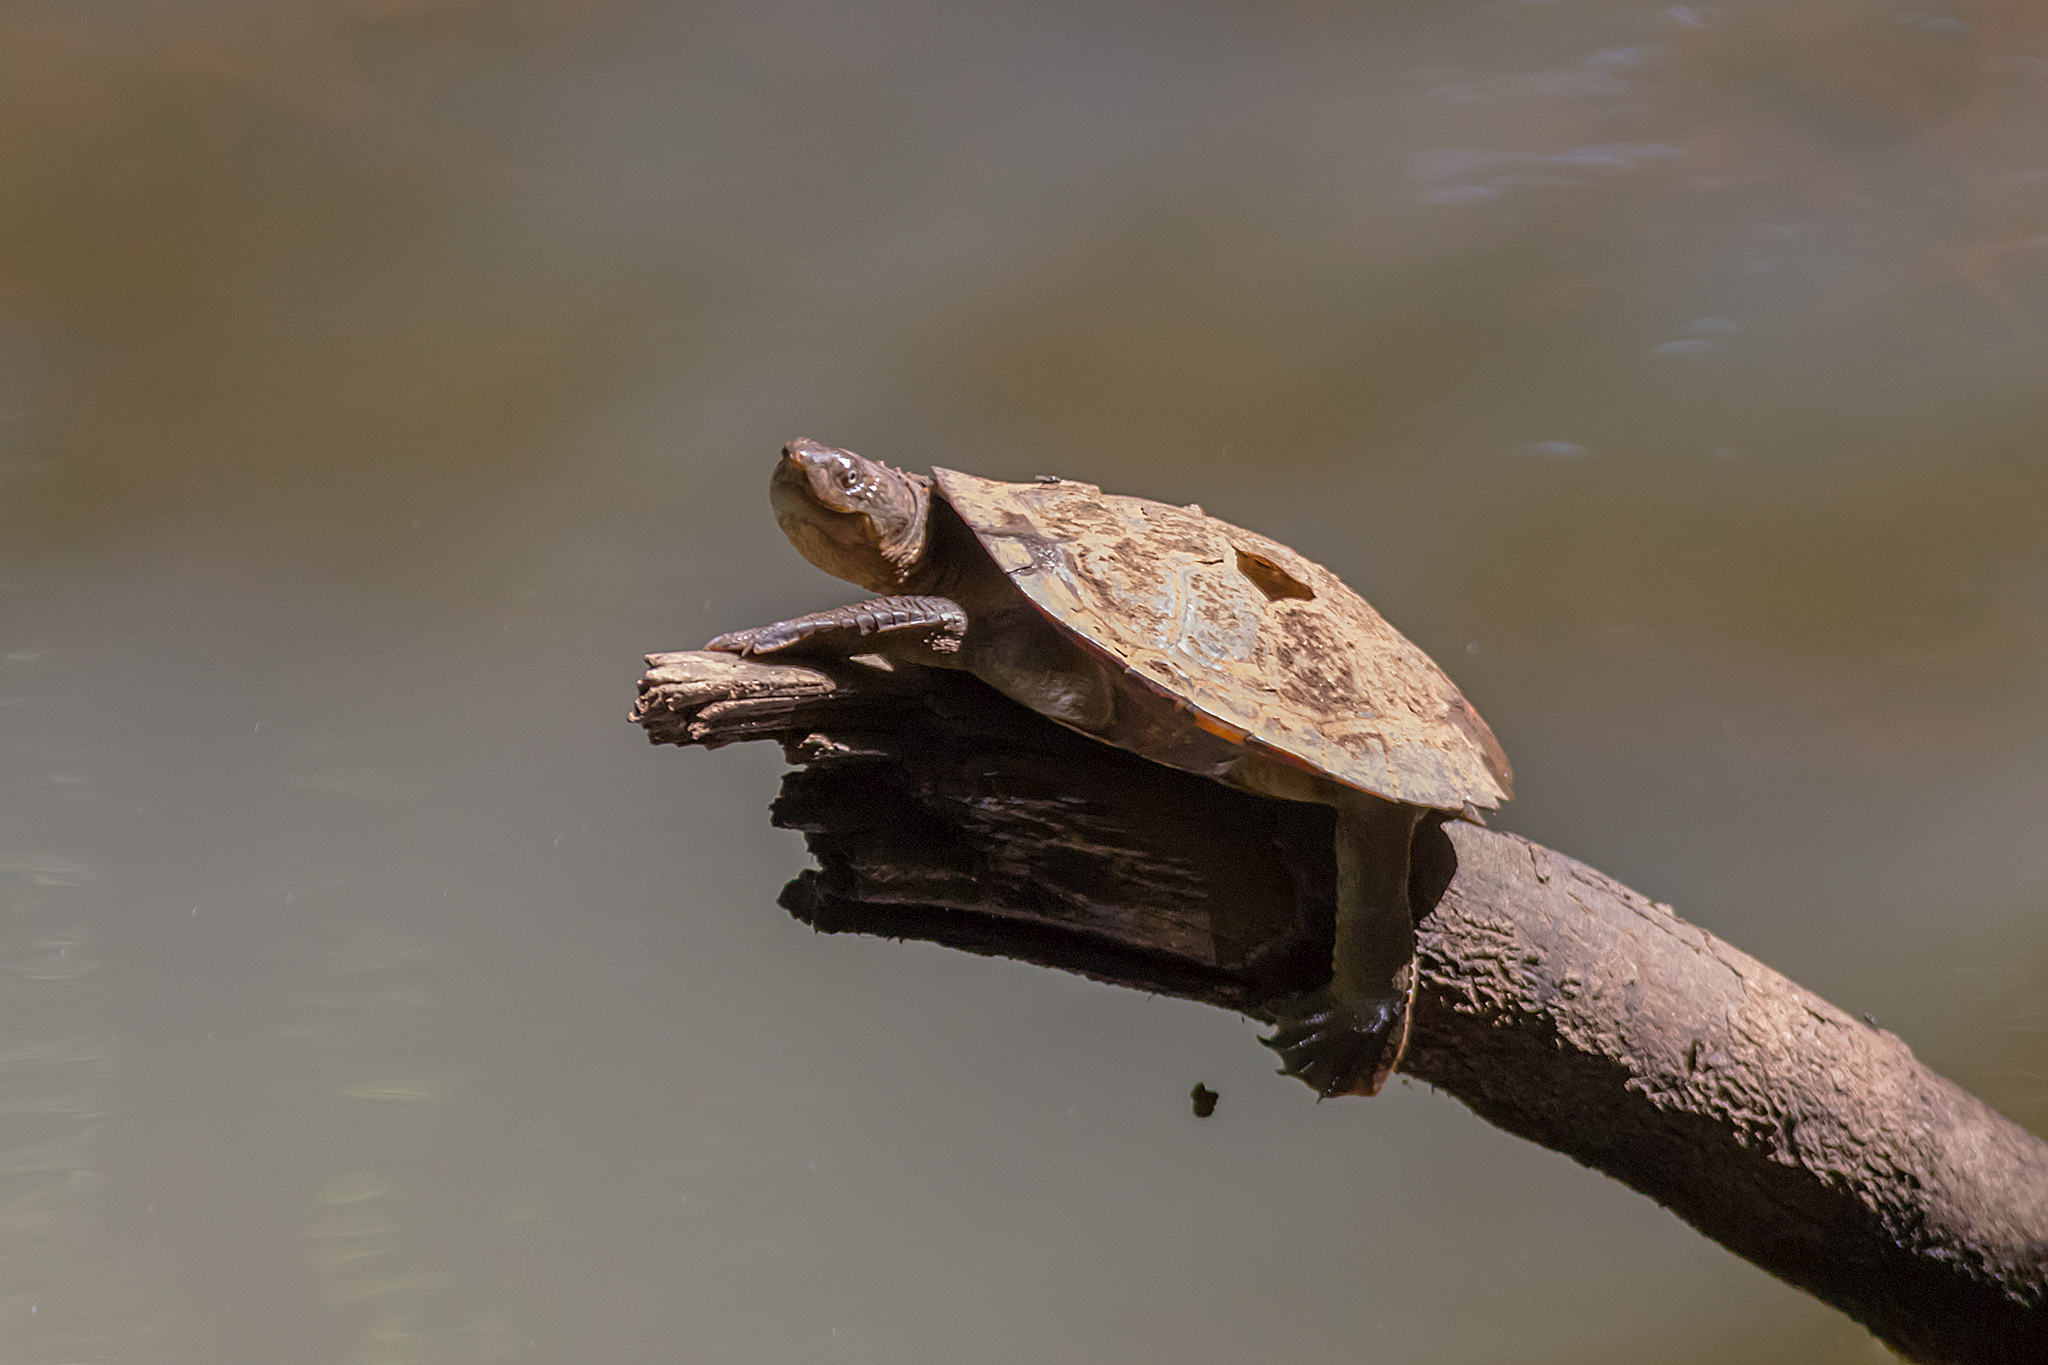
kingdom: Animalia
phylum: Chordata
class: Testudines
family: Chelidae
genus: Myuchelys
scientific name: Myuchelys latisternum
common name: Serrated snapping turtle
